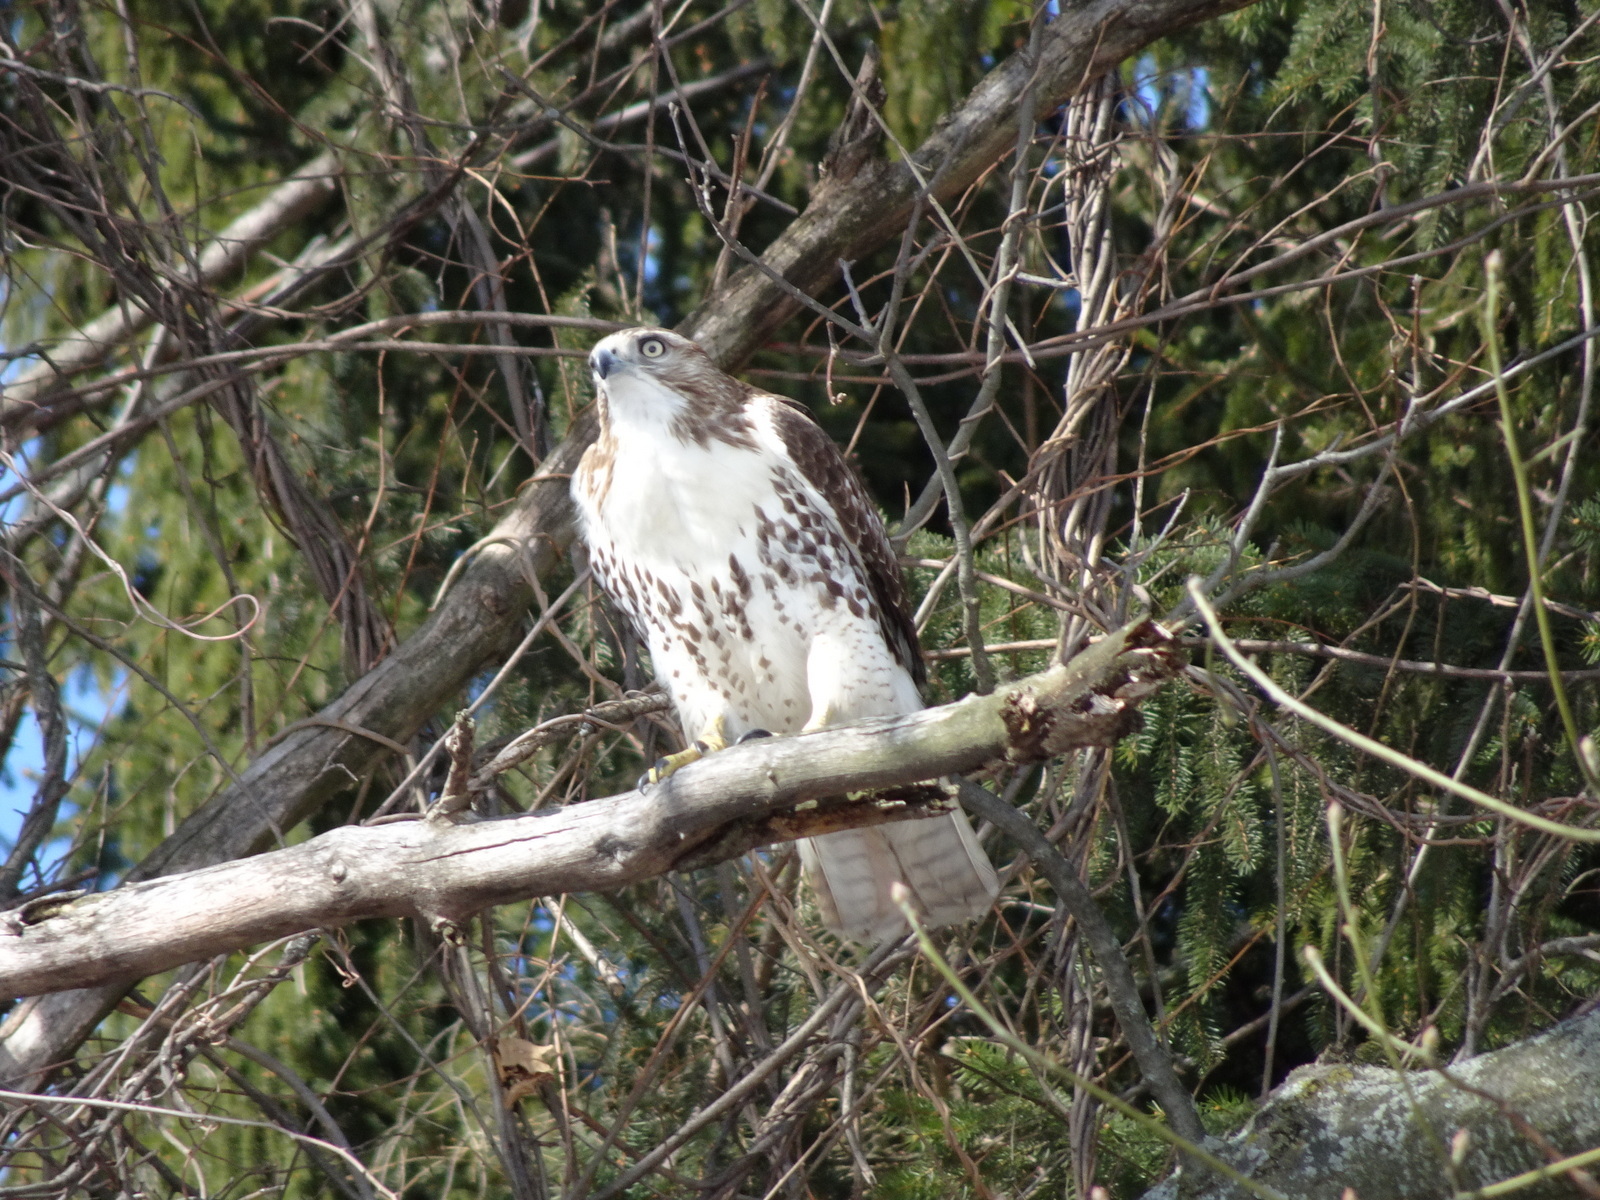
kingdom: Animalia
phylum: Chordata
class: Aves
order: Accipitriformes
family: Accipitridae
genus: Buteo
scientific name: Buteo jamaicensis
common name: Red-tailed hawk
